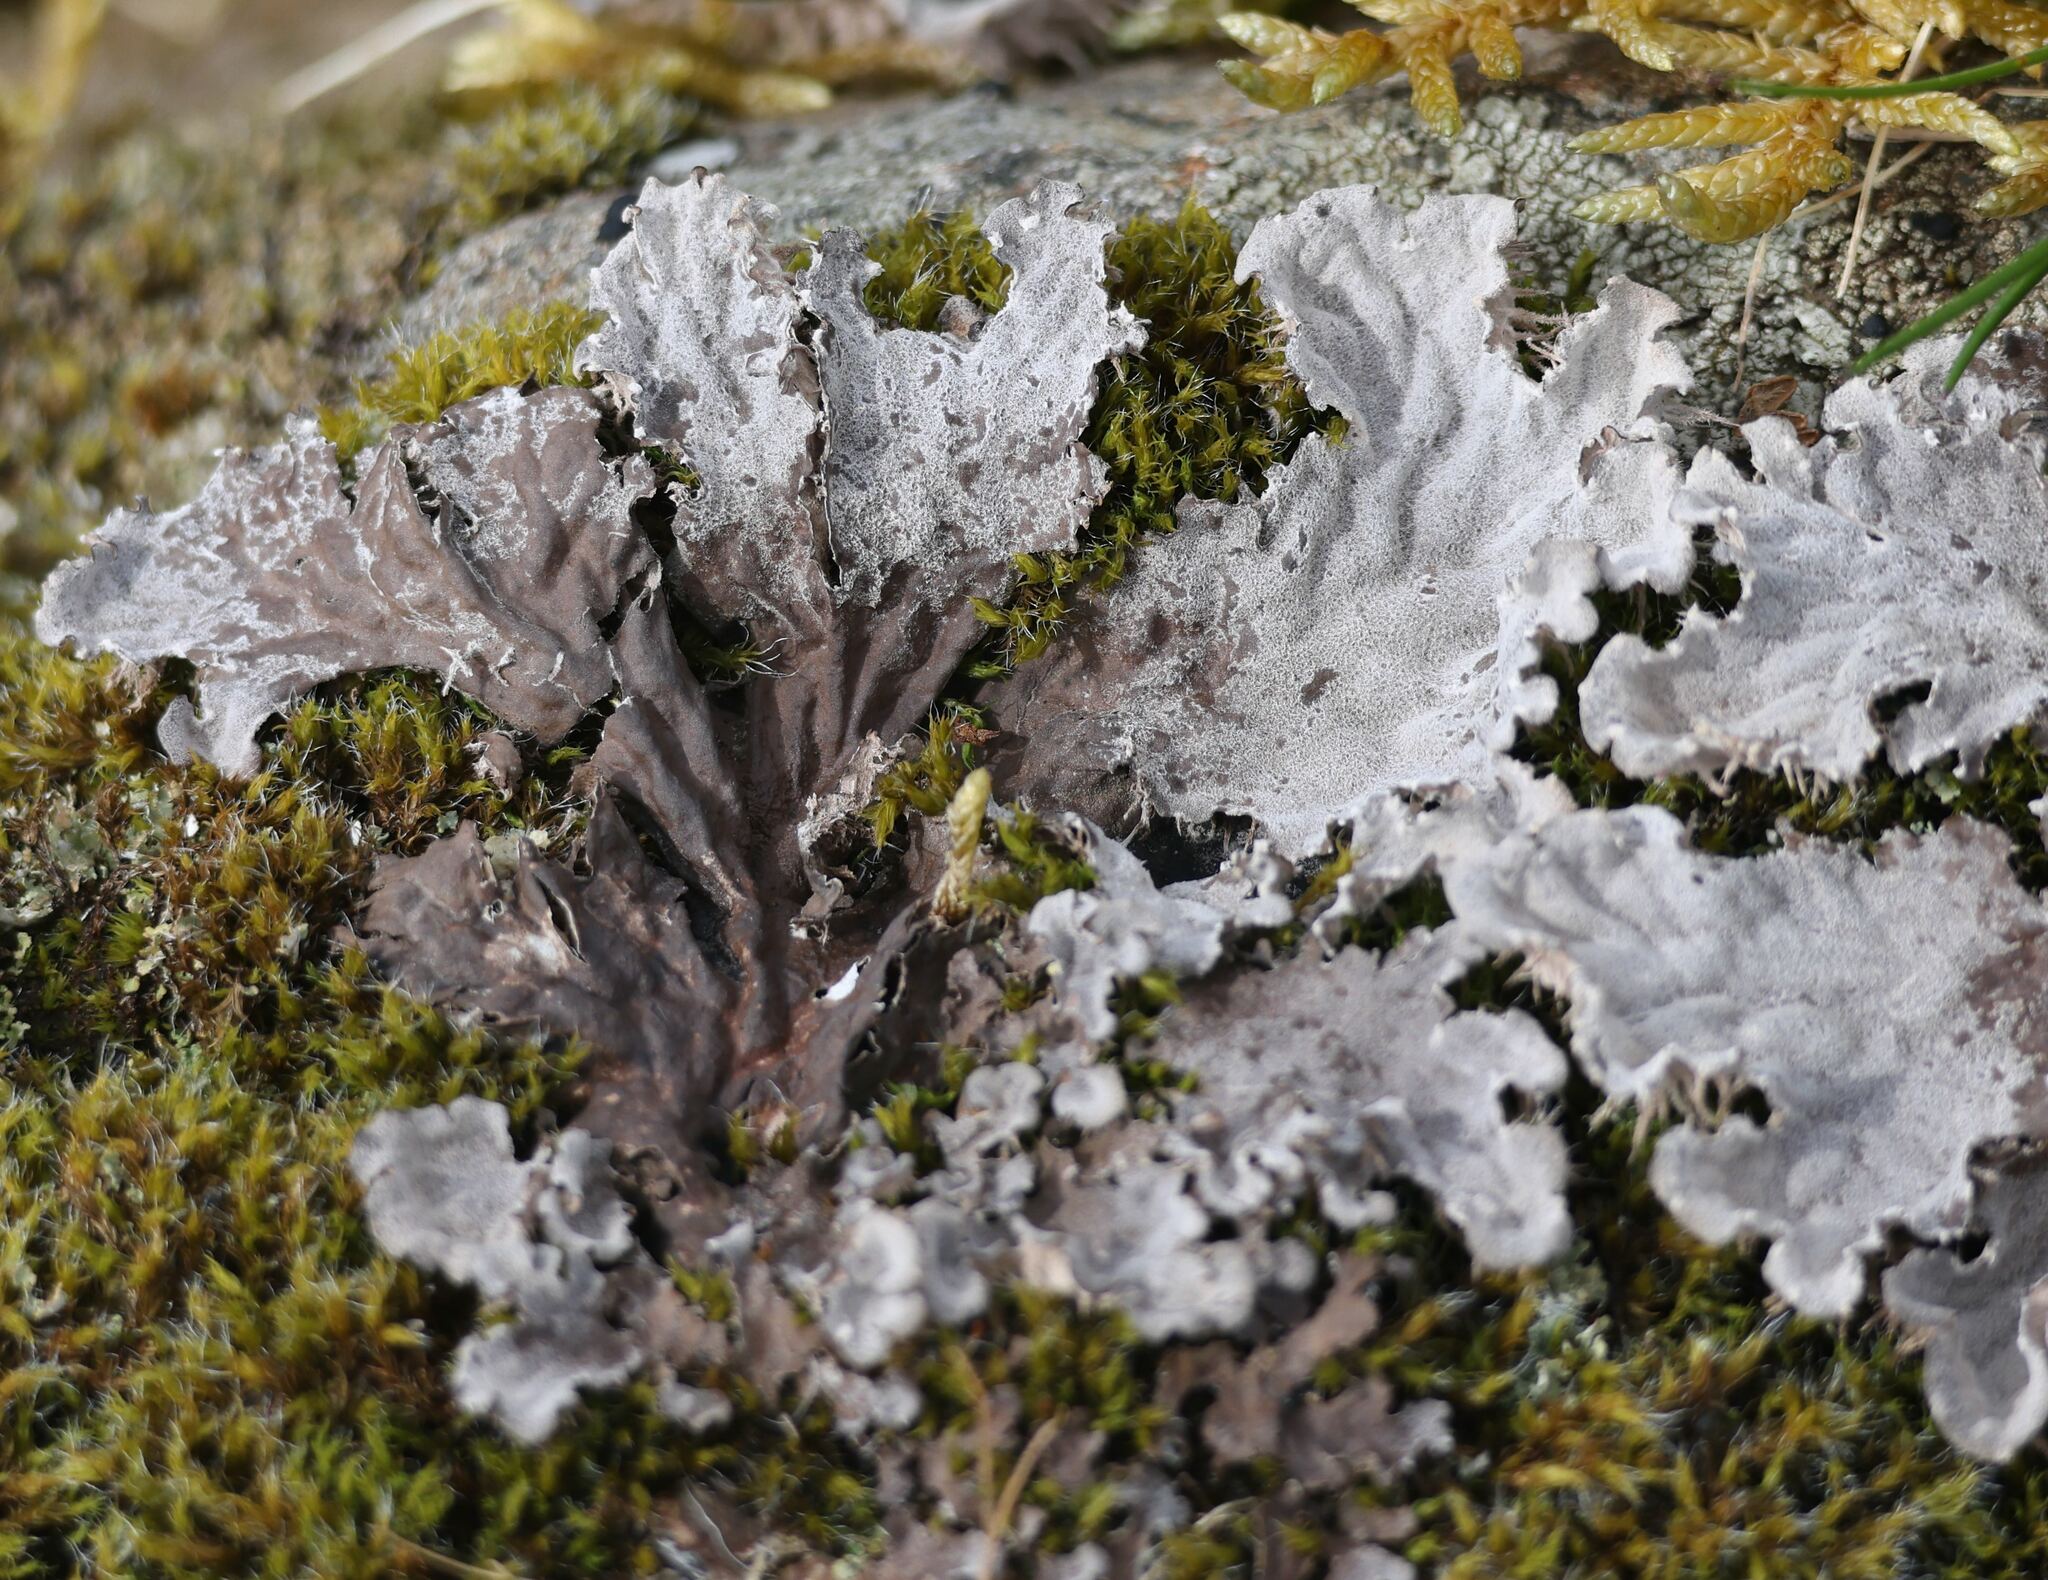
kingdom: Fungi
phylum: Ascomycota
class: Lecanoromycetes
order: Peltigerales
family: Peltigeraceae
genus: Peltigera
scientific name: Peltigera membranacea
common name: Membranous pelt lichen
